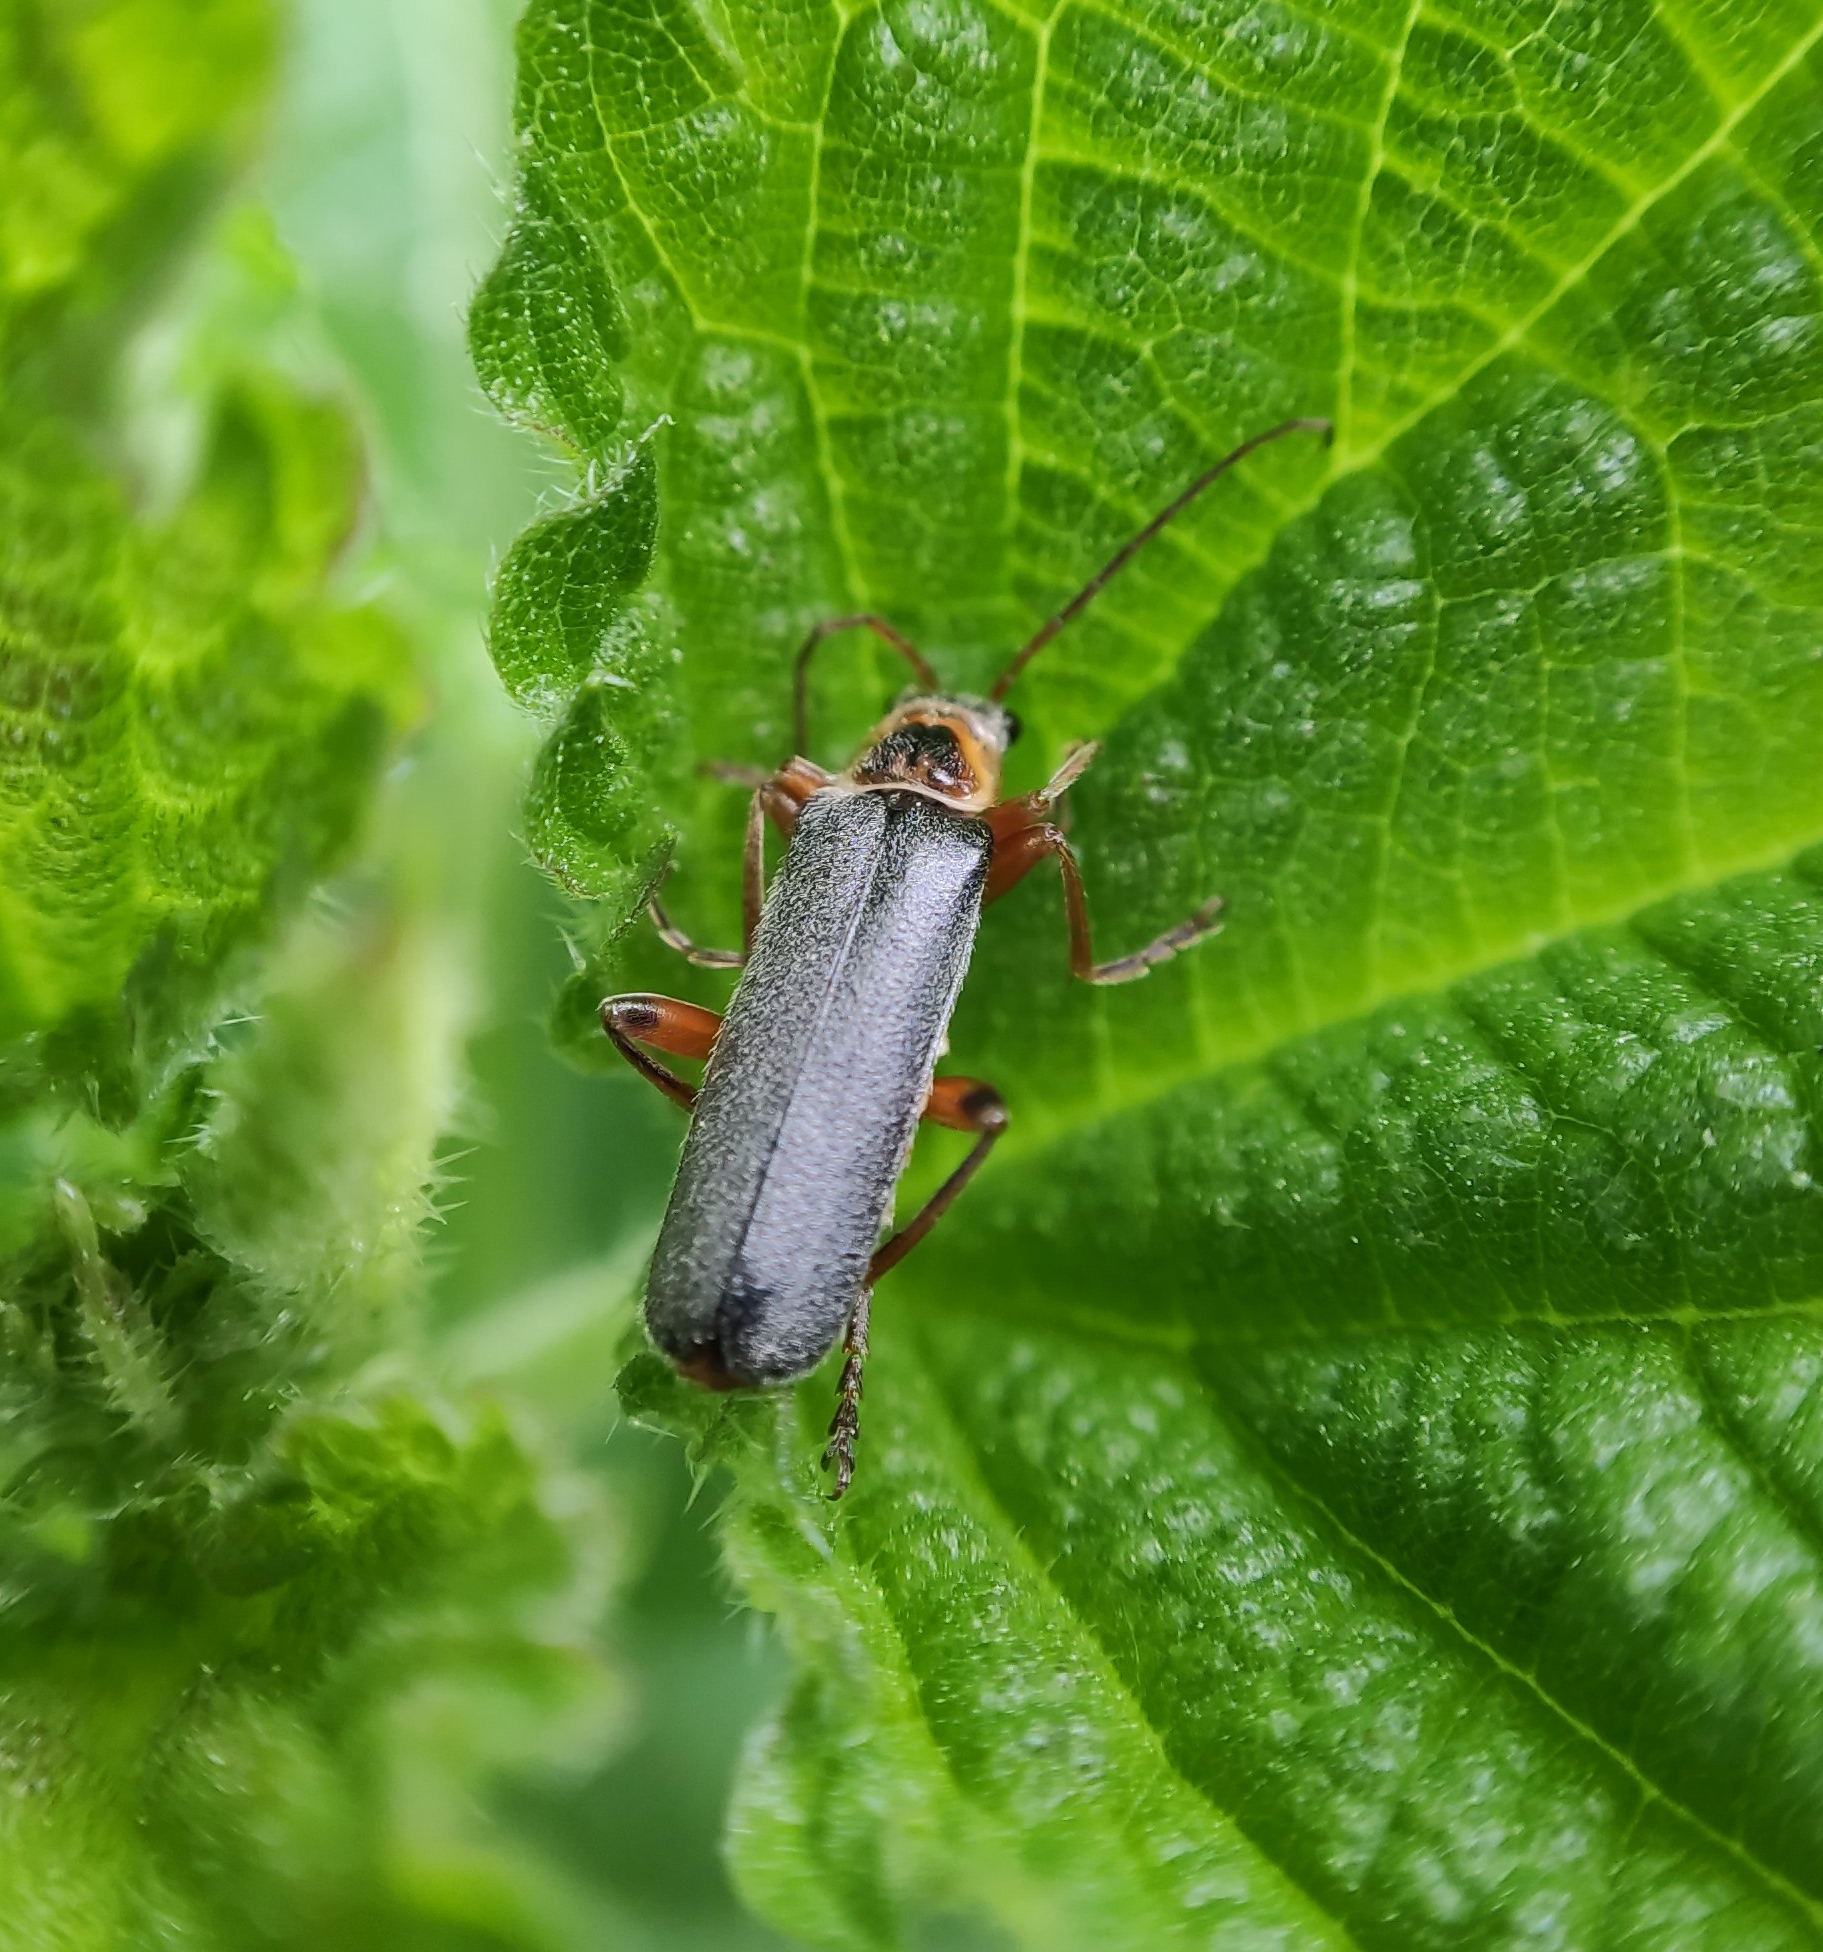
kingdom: Animalia
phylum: Arthropoda
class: Insecta
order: Coleoptera
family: Cantharidae
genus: Cantharis
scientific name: Cantharis nigricans
